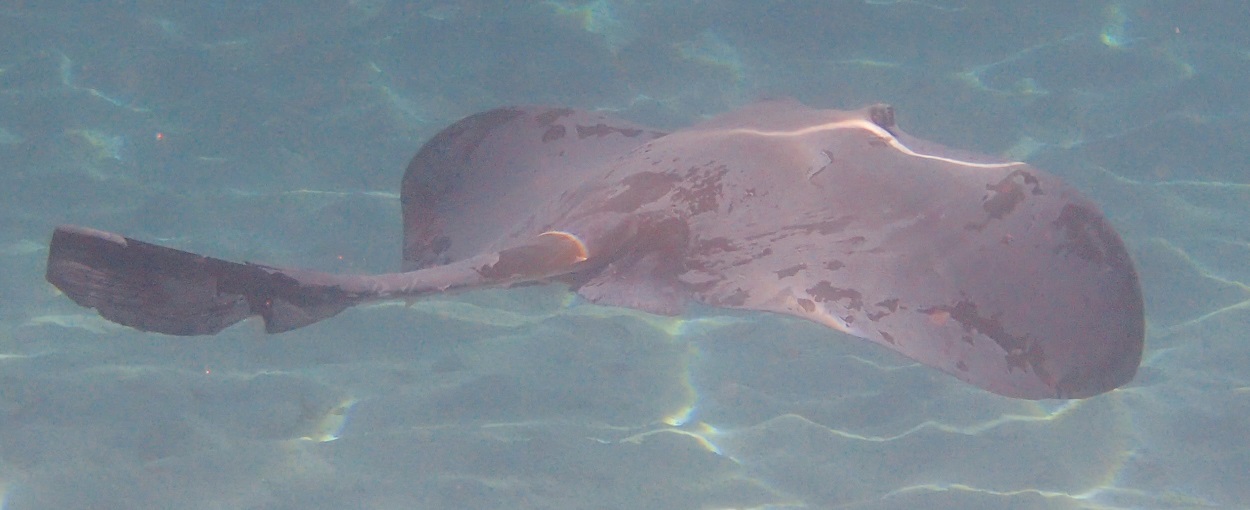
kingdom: Animalia
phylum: Chordata
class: Elasmobranchii
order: Myliobatiformes
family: Dasyatidae
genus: Pastinachus
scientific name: Pastinachus ater
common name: Banana-tail ray
